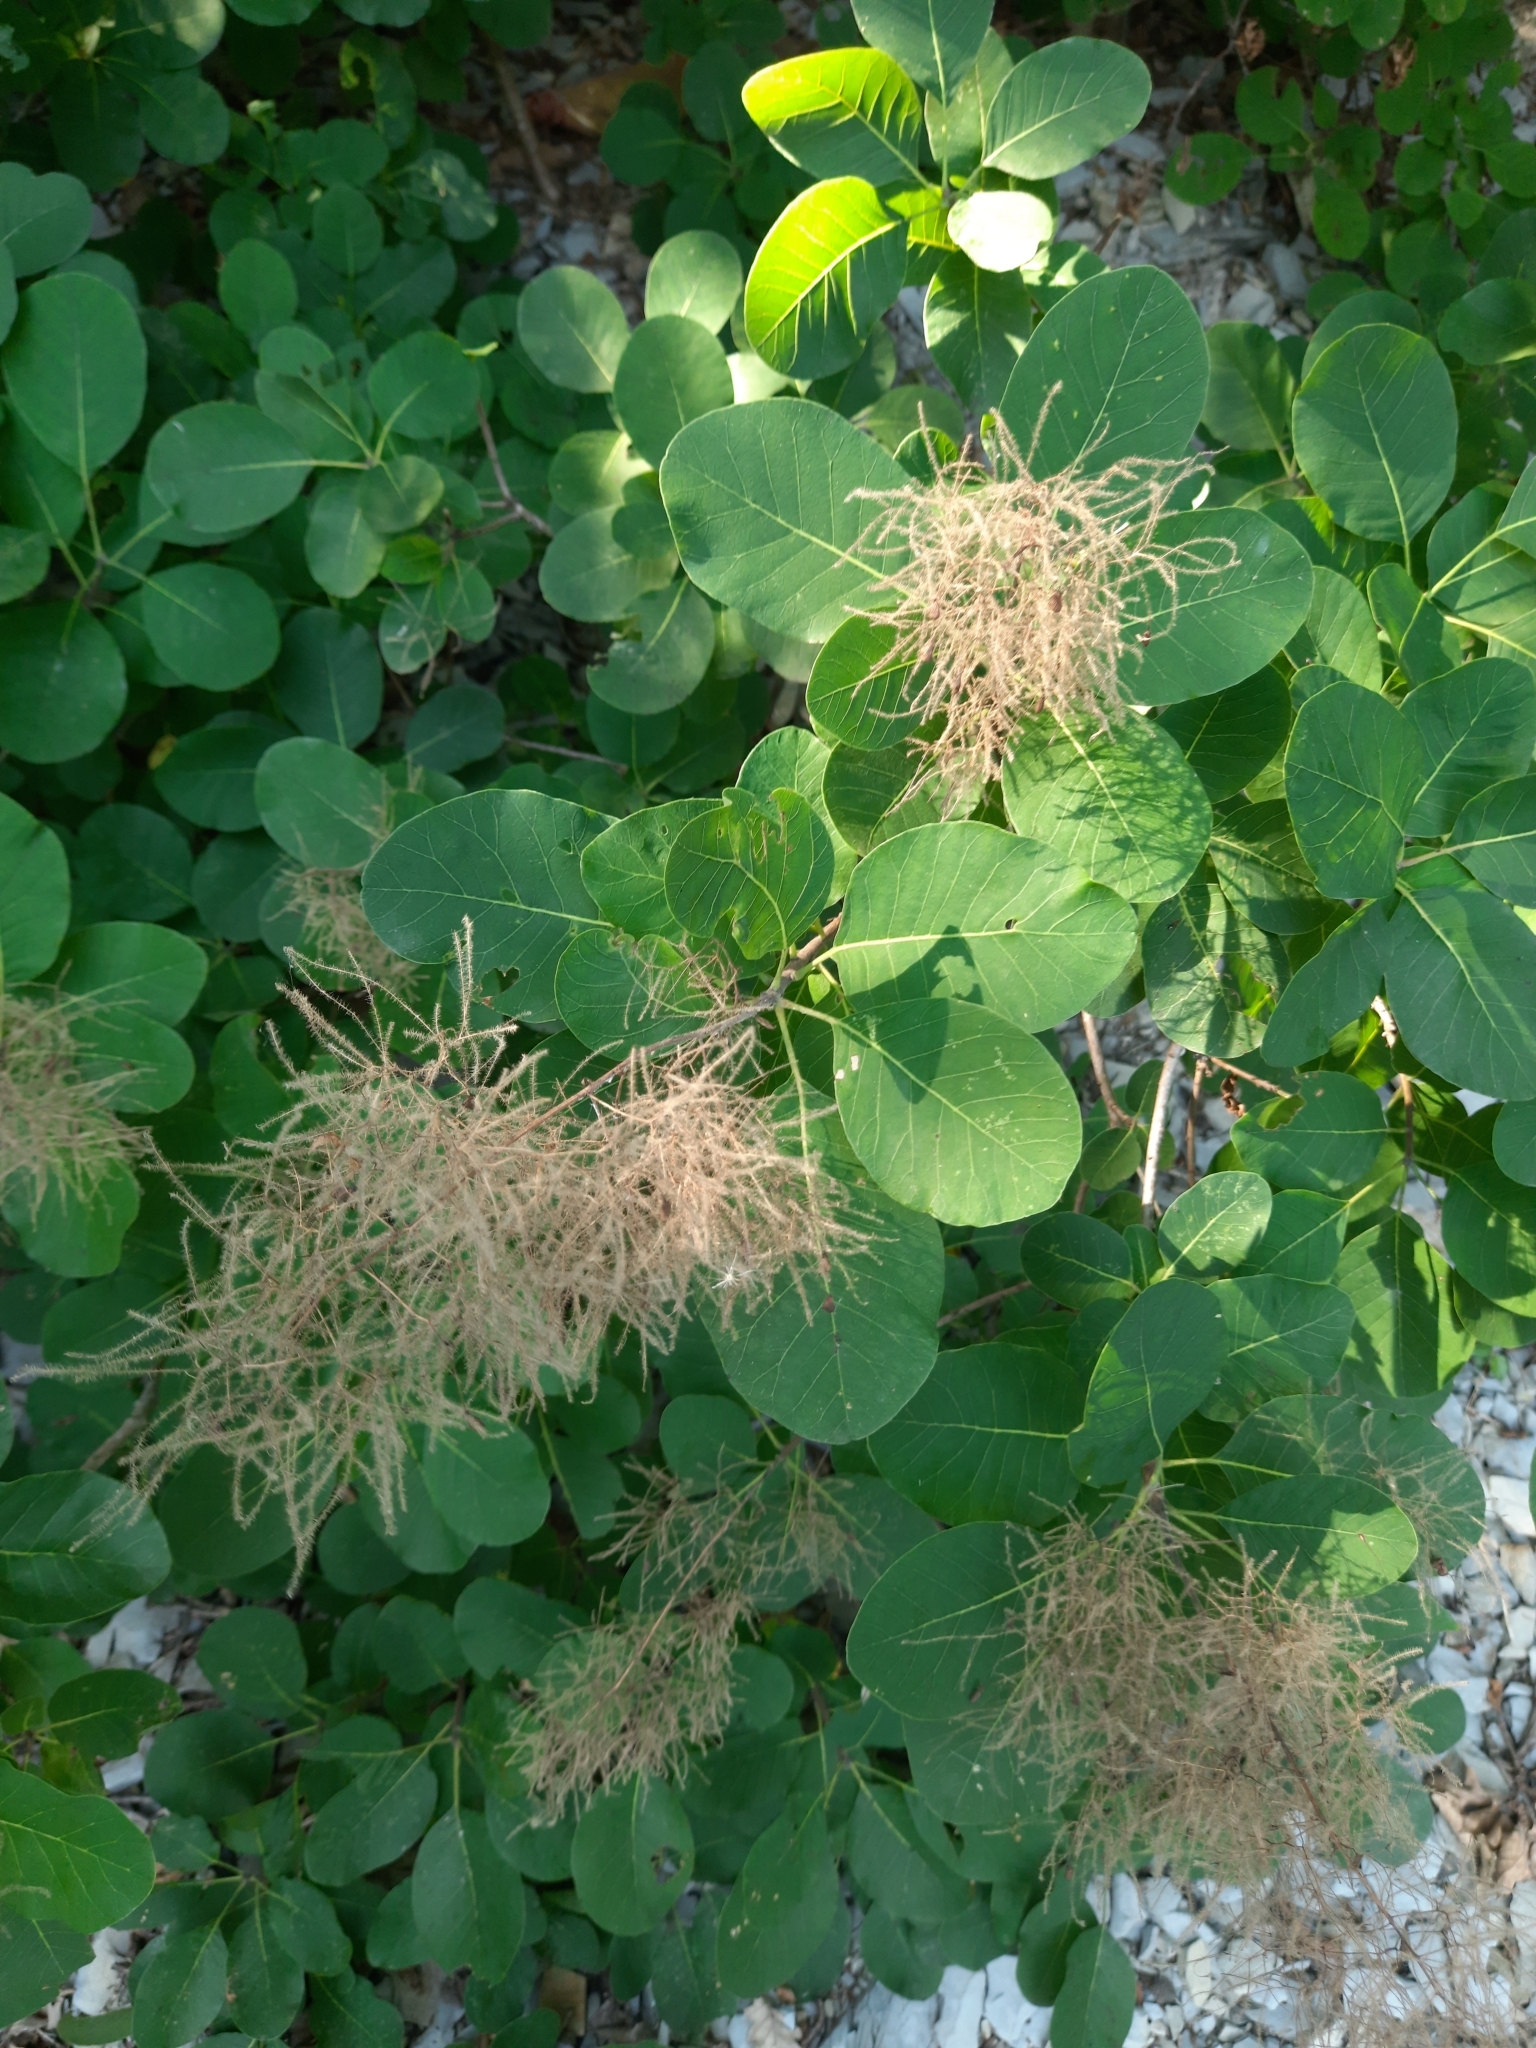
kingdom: Plantae
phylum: Tracheophyta
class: Magnoliopsida
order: Sapindales
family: Anacardiaceae
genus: Cotinus
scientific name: Cotinus coggygria
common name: Smoke-tree
